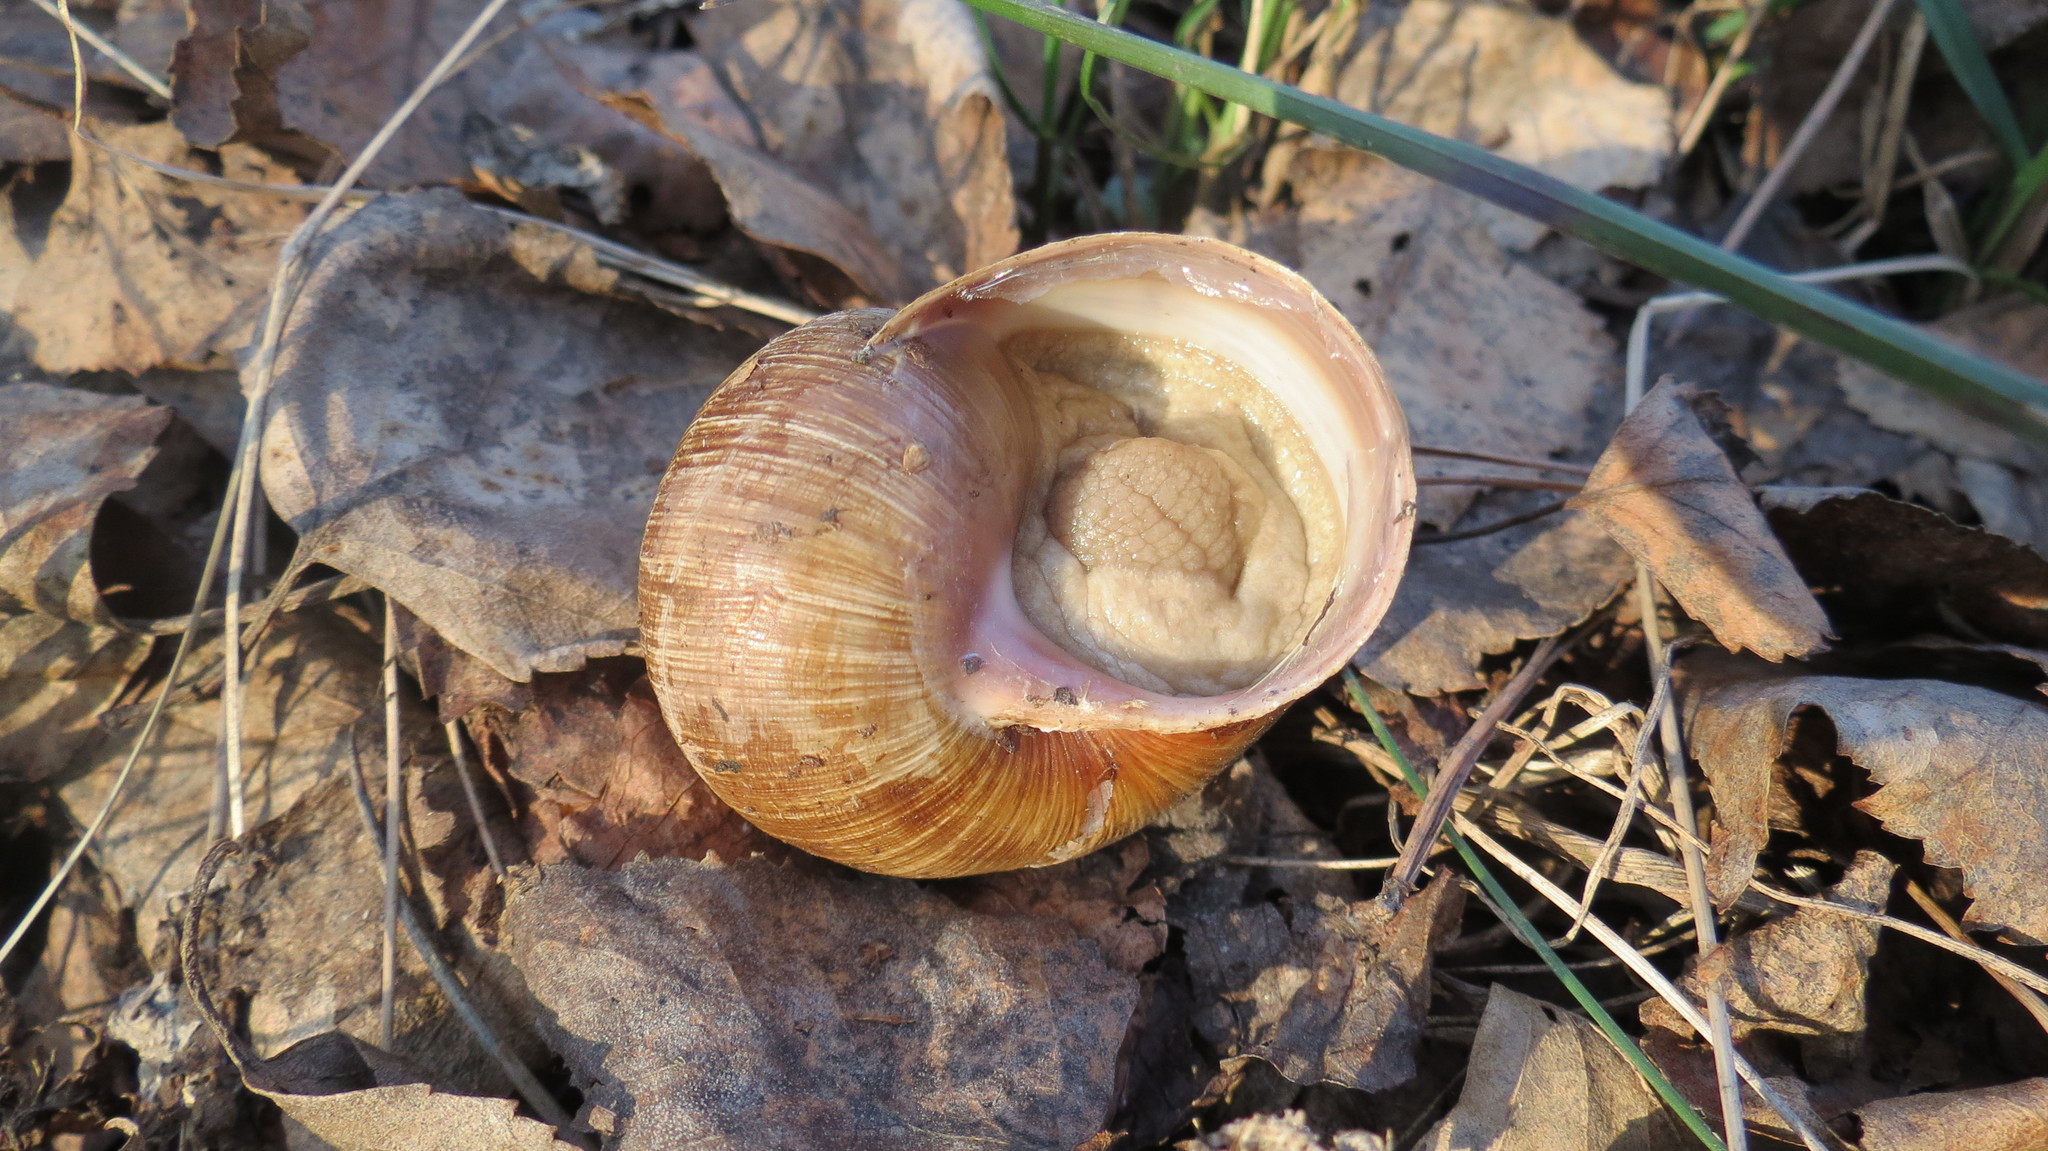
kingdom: Animalia
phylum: Mollusca
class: Gastropoda
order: Stylommatophora
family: Helicidae
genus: Helix
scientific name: Helix pomatia
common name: Roman snail
